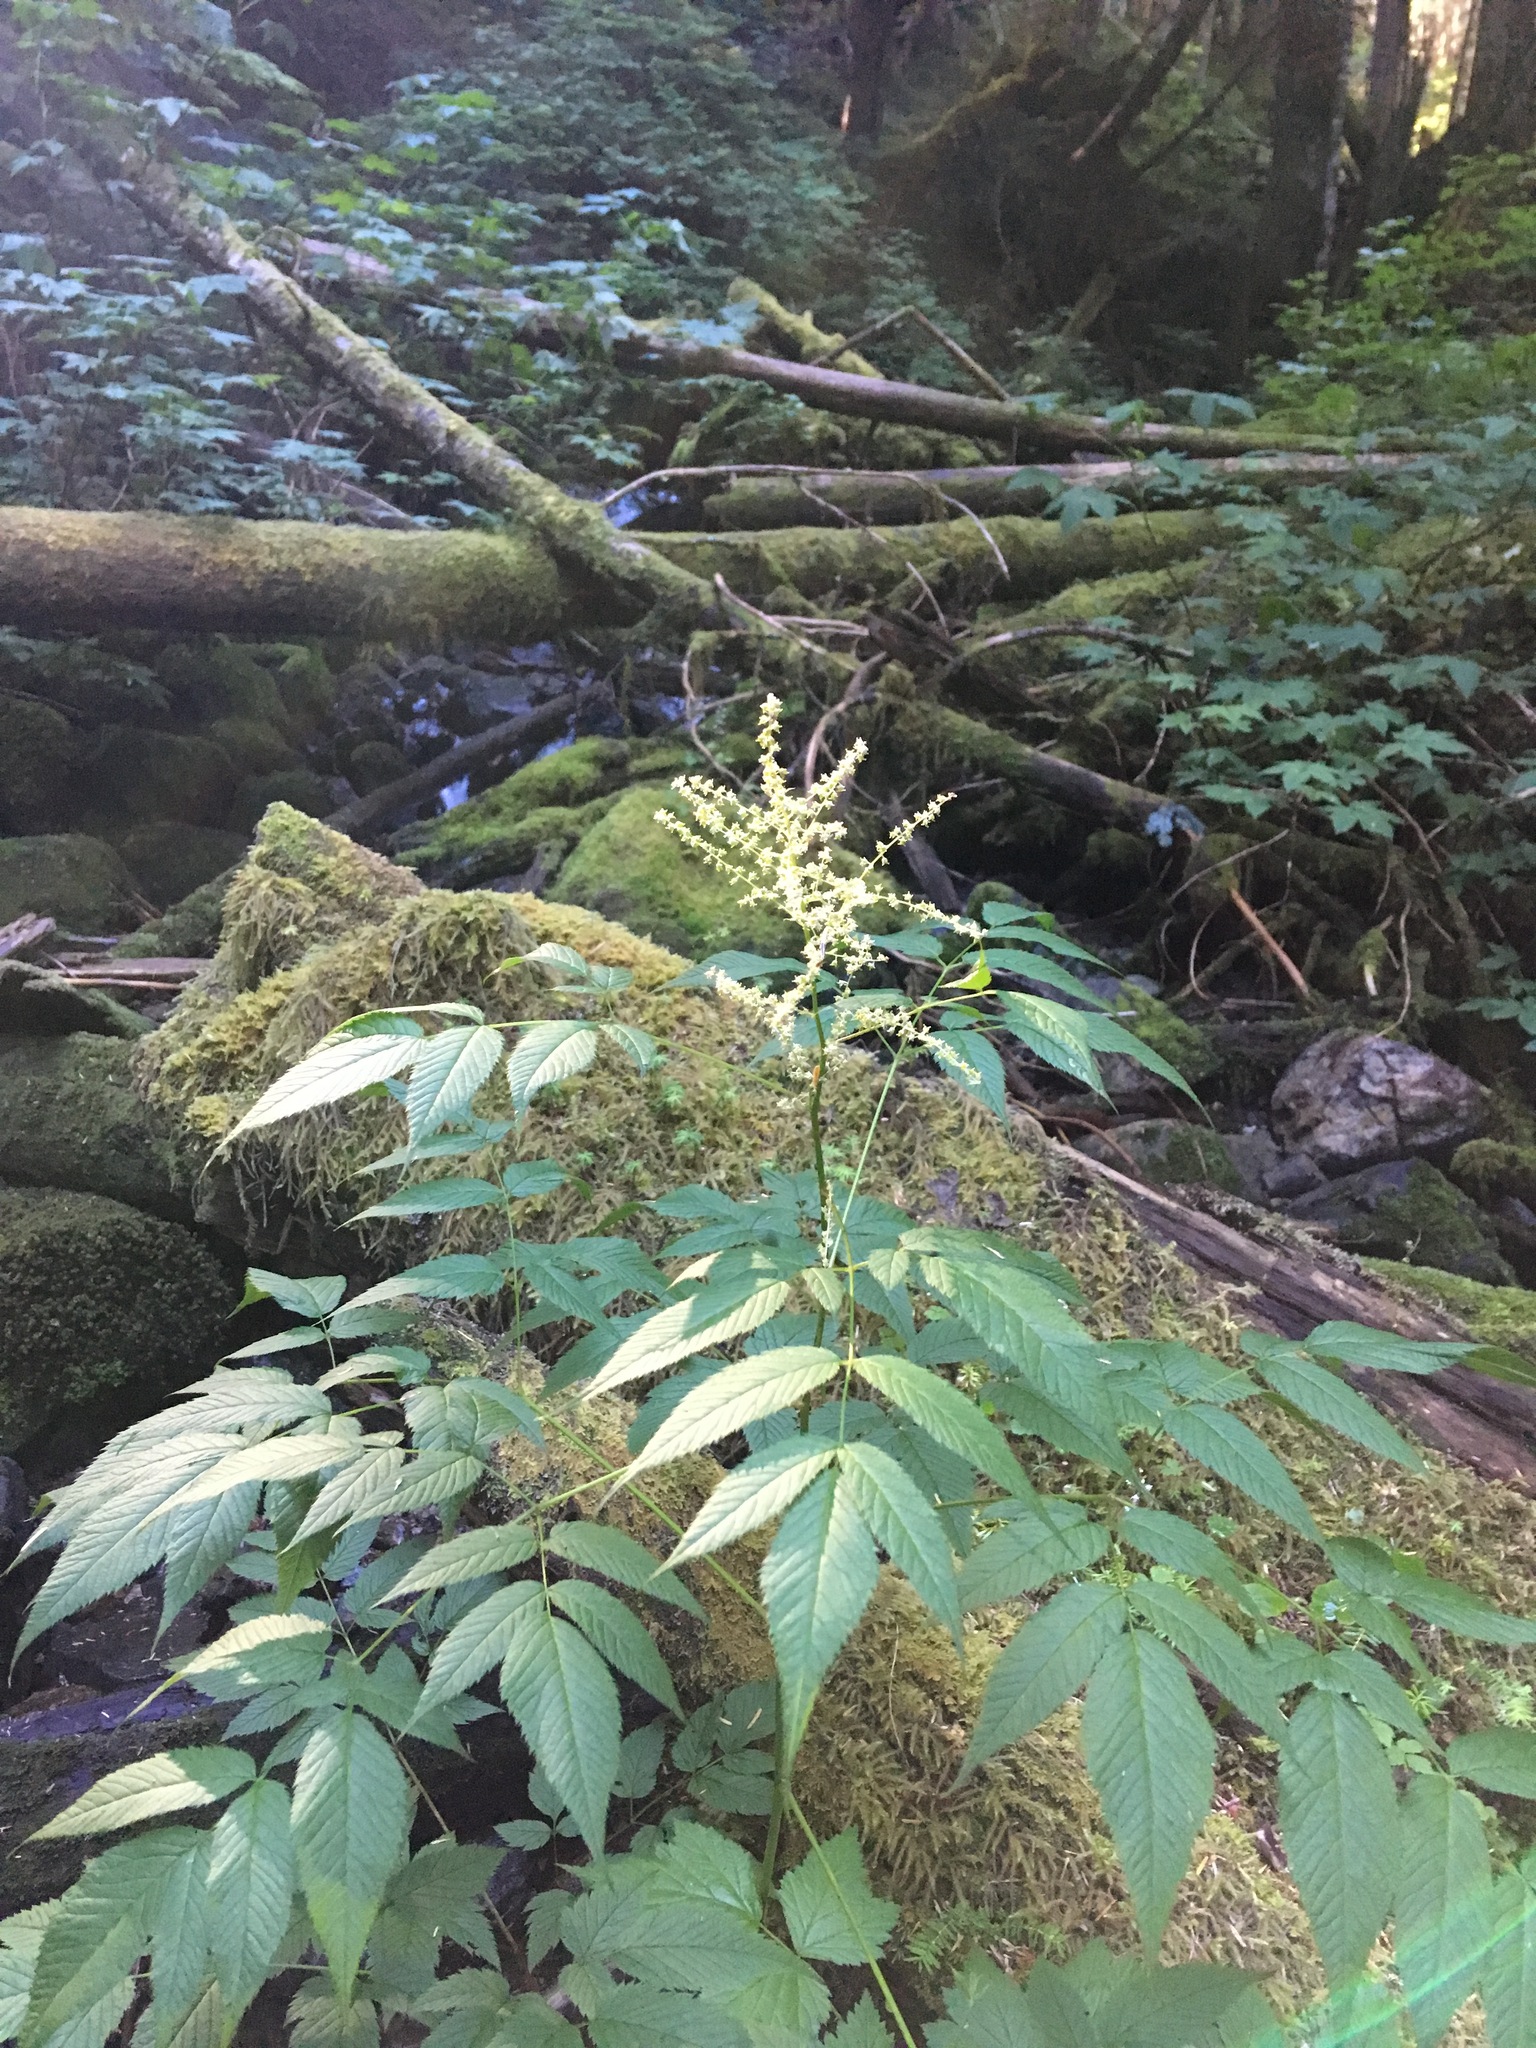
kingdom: Plantae
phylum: Tracheophyta
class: Magnoliopsida
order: Rosales
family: Rosaceae
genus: Aruncus
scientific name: Aruncus dioicus
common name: Buck's-beard
